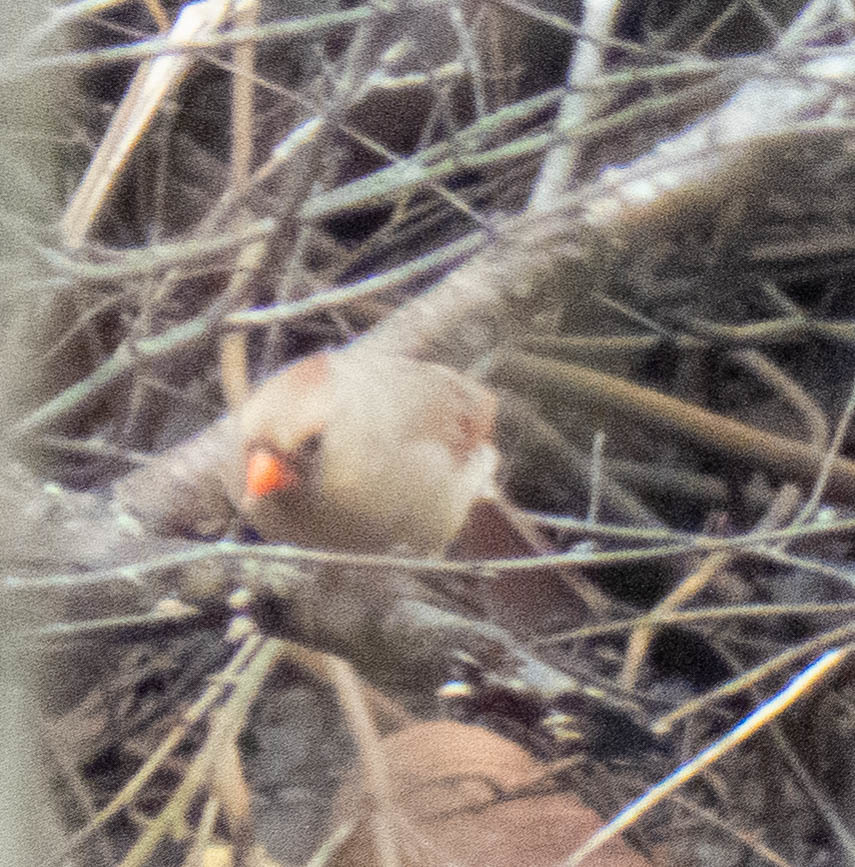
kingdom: Animalia
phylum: Chordata
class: Aves
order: Passeriformes
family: Cardinalidae
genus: Cardinalis
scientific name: Cardinalis cardinalis
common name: Northern cardinal
